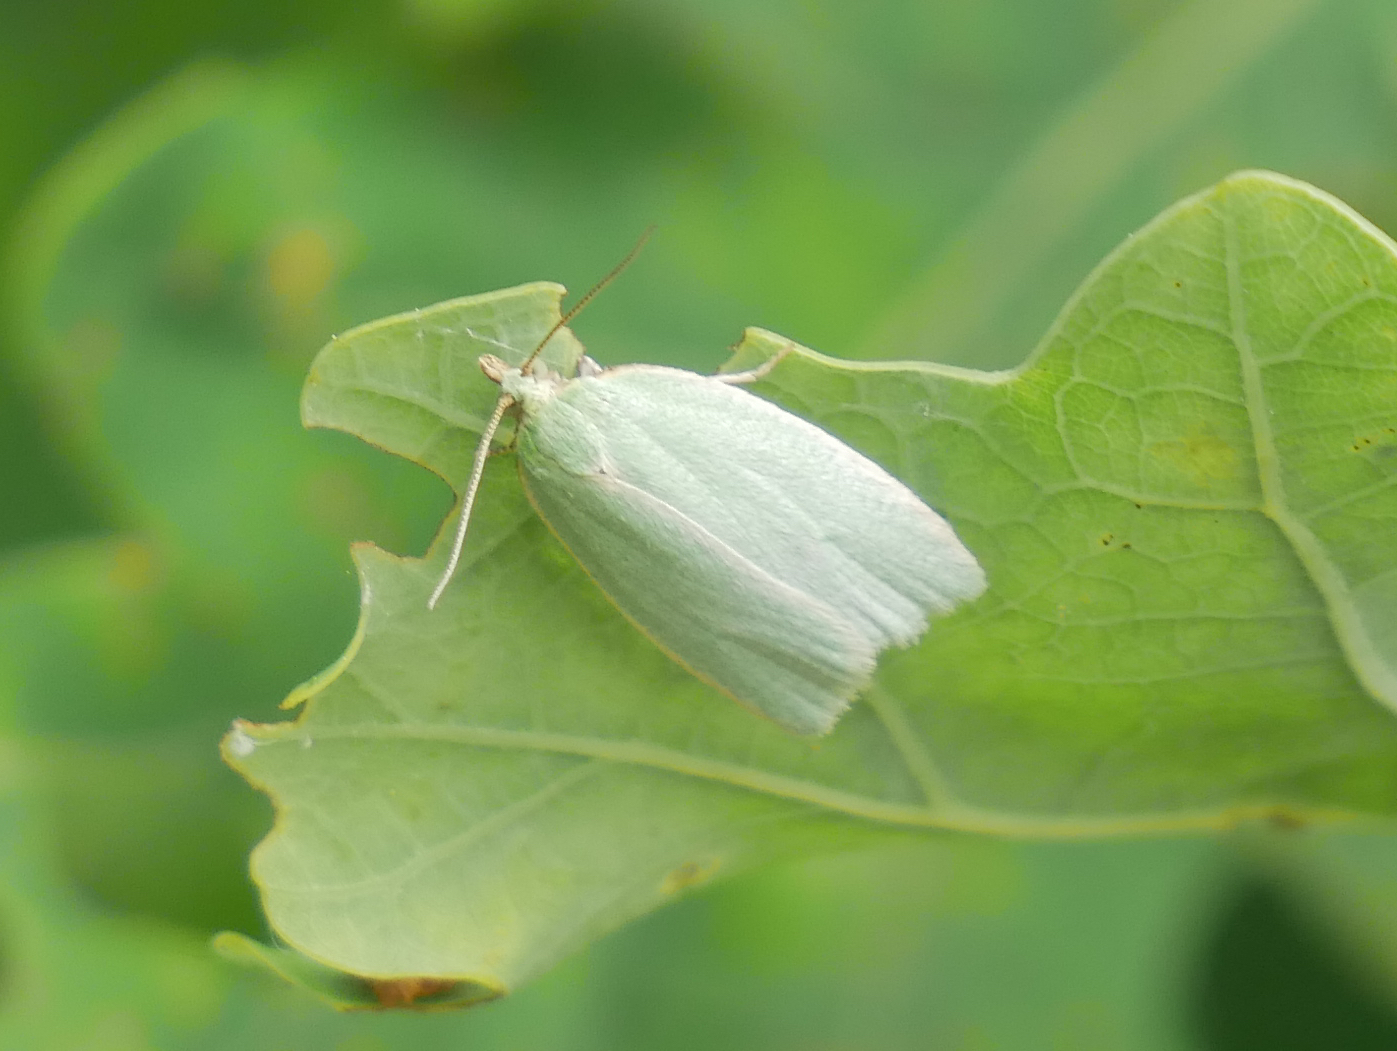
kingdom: Animalia
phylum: Arthropoda
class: Insecta
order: Lepidoptera
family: Tortricidae
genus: Tortrix
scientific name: Tortrix viridana
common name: Green oak tortrix
